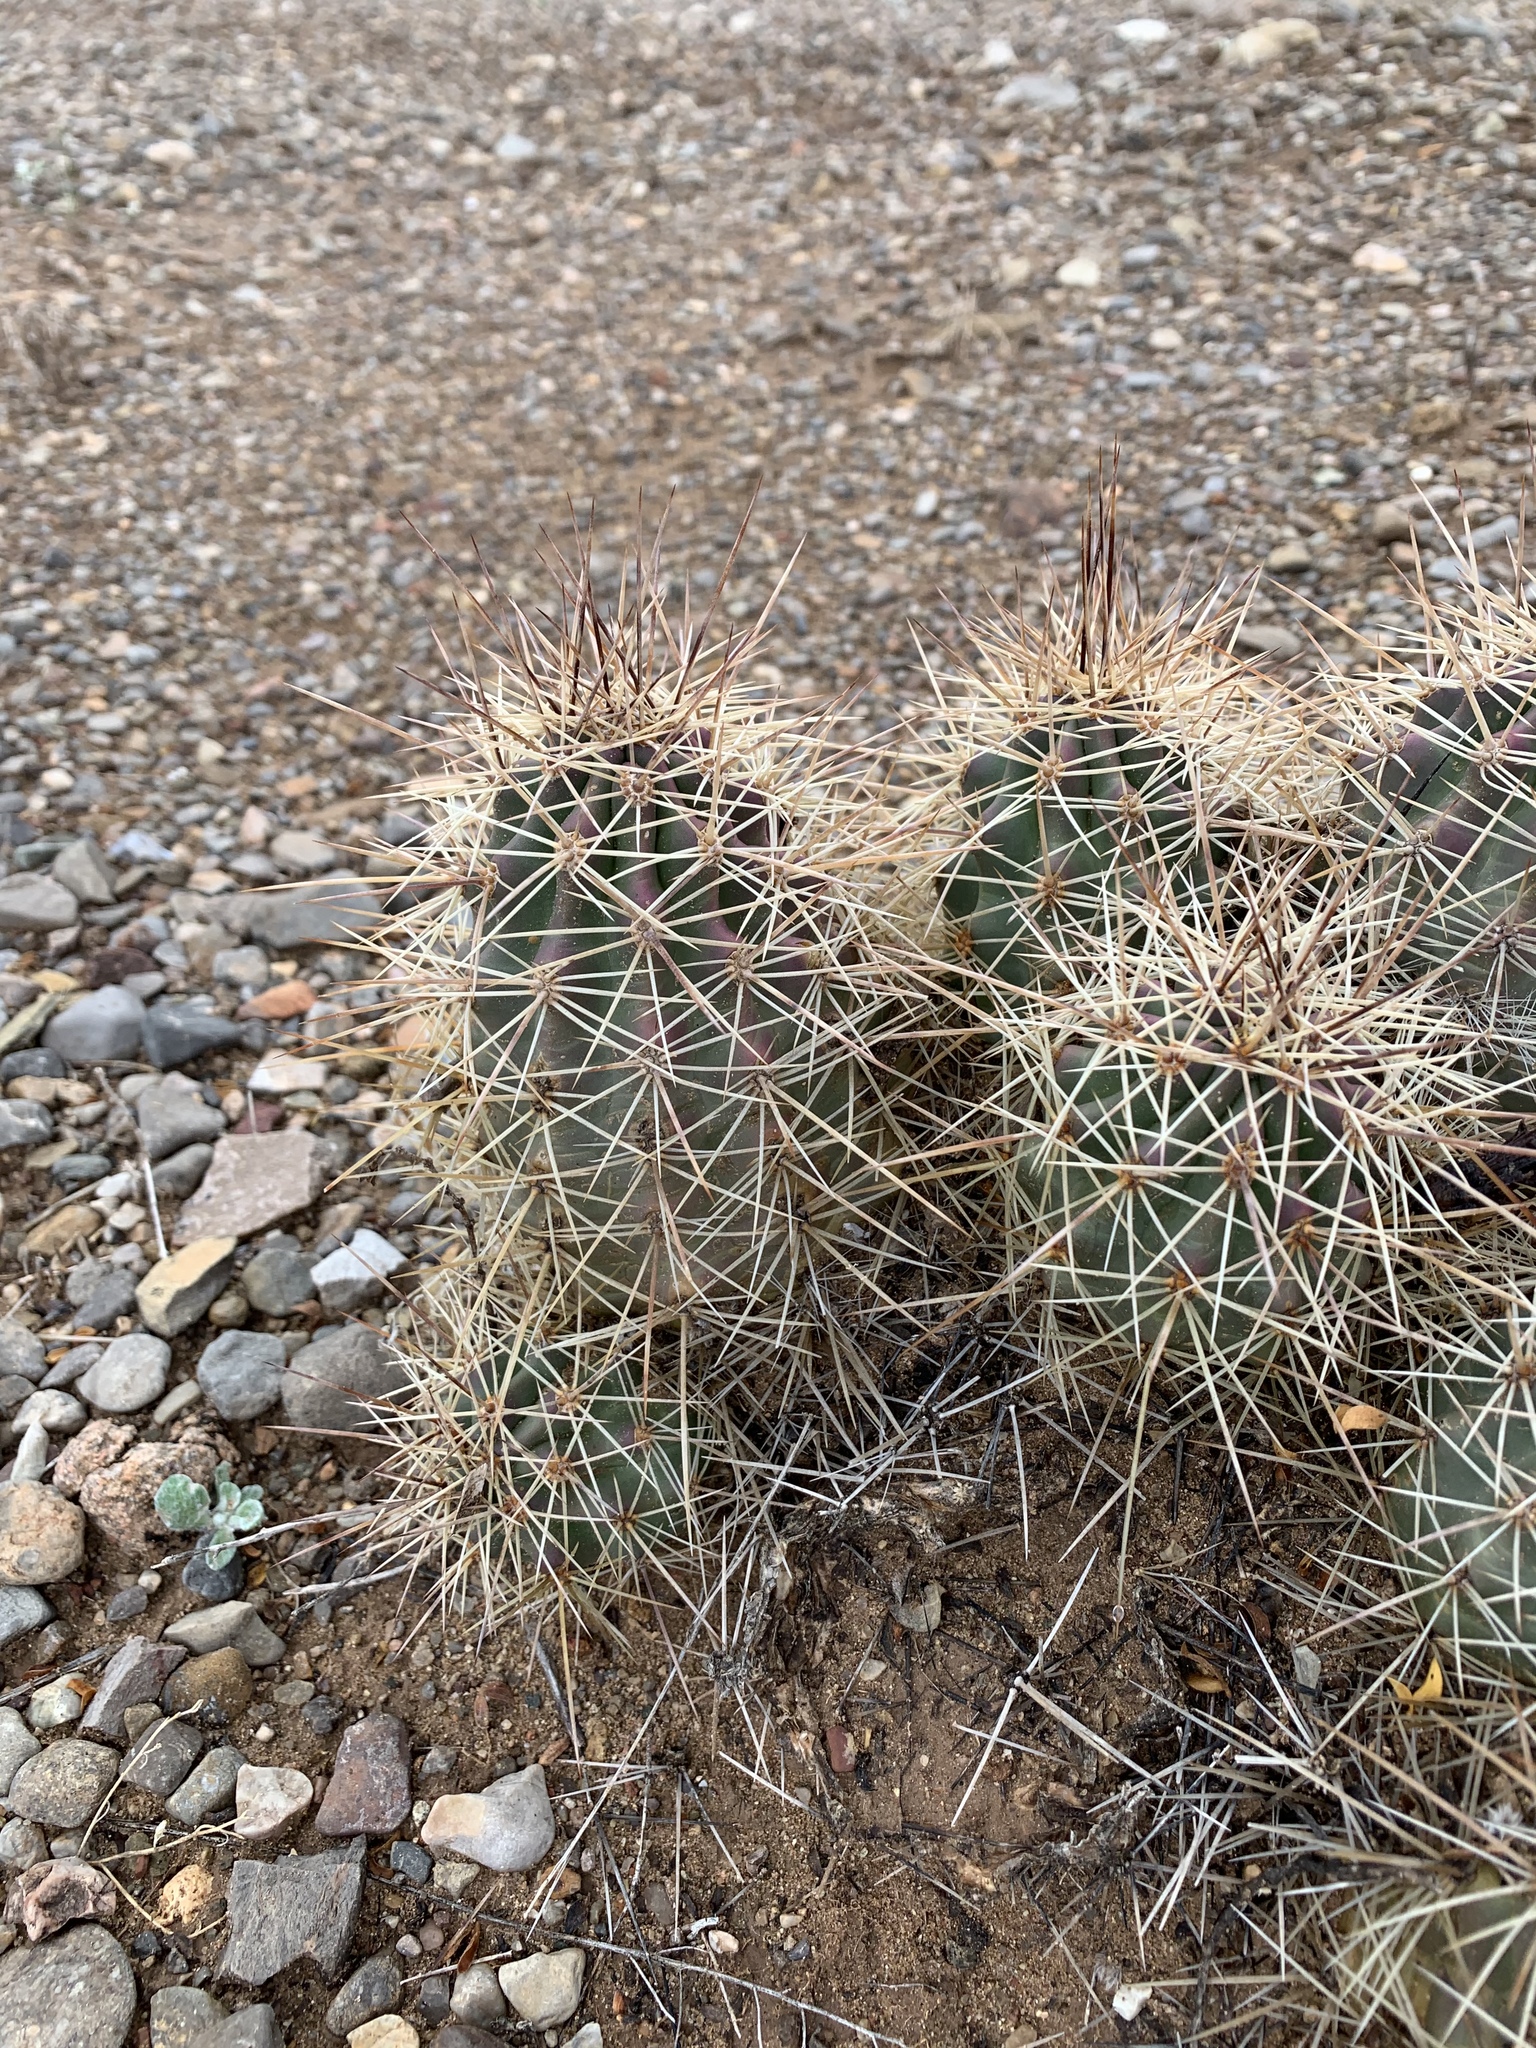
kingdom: Plantae
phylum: Tracheophyta
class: Magnoliopsida
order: Caryophyllales
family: Cactaceae
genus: Echinocereus
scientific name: Echinocereus coccineus
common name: Scarlet hedgehog cactus
